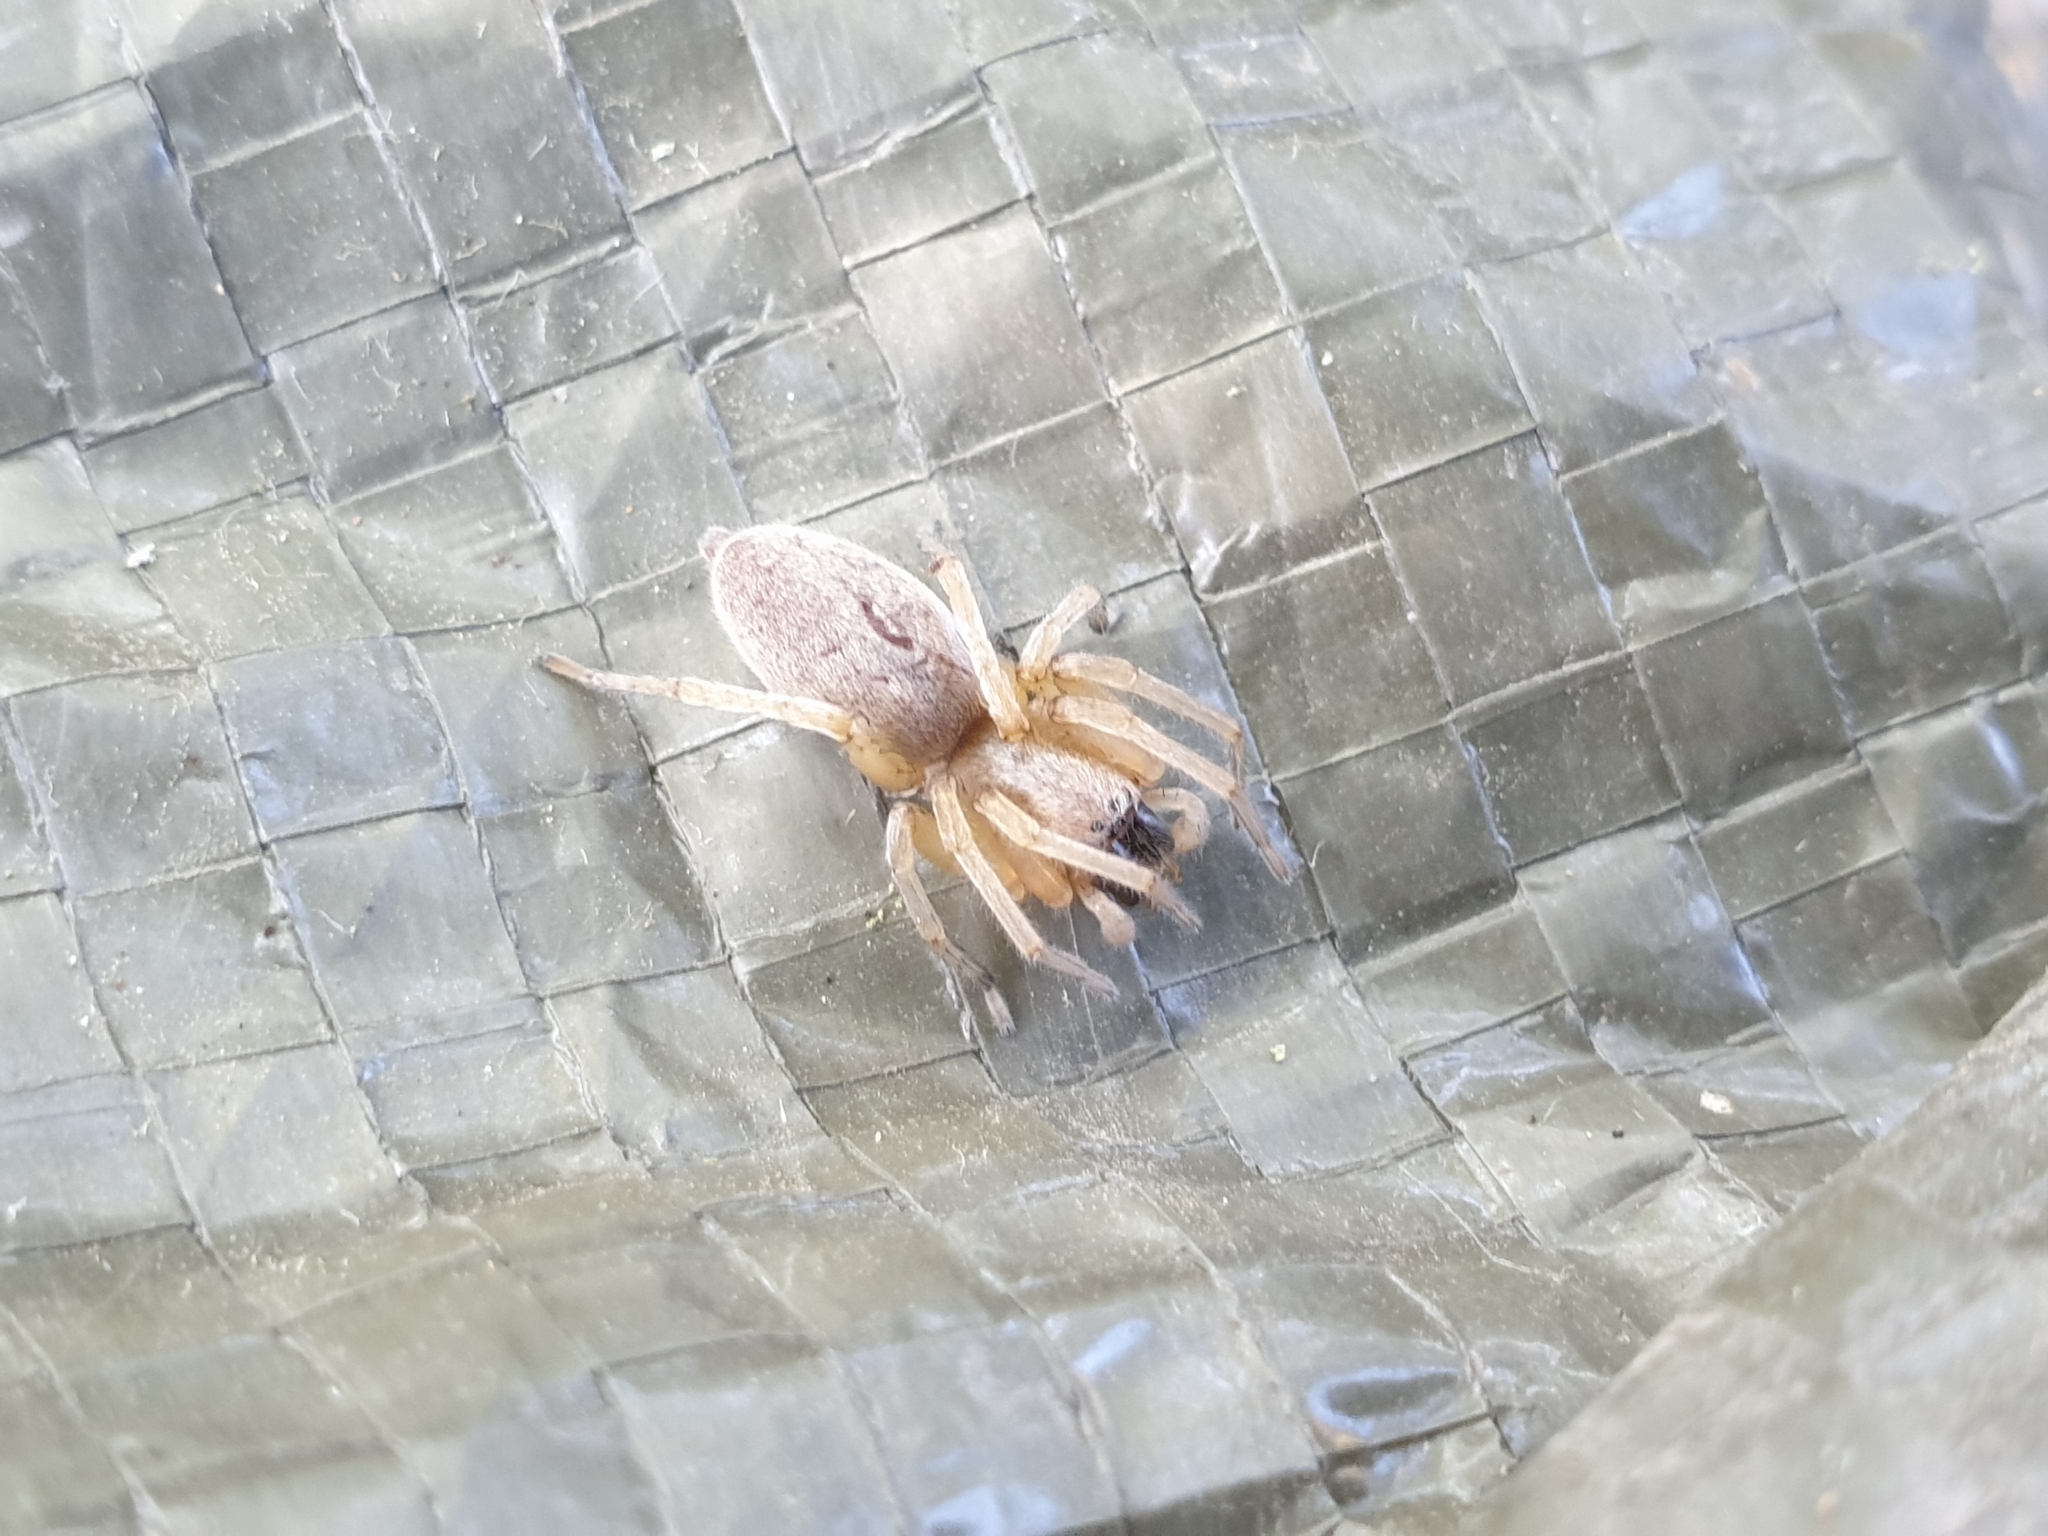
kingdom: Animalia
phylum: Arthropoda
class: Arachnida
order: Araneae
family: Clubionidae
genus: Clubiona
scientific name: Clubiona
